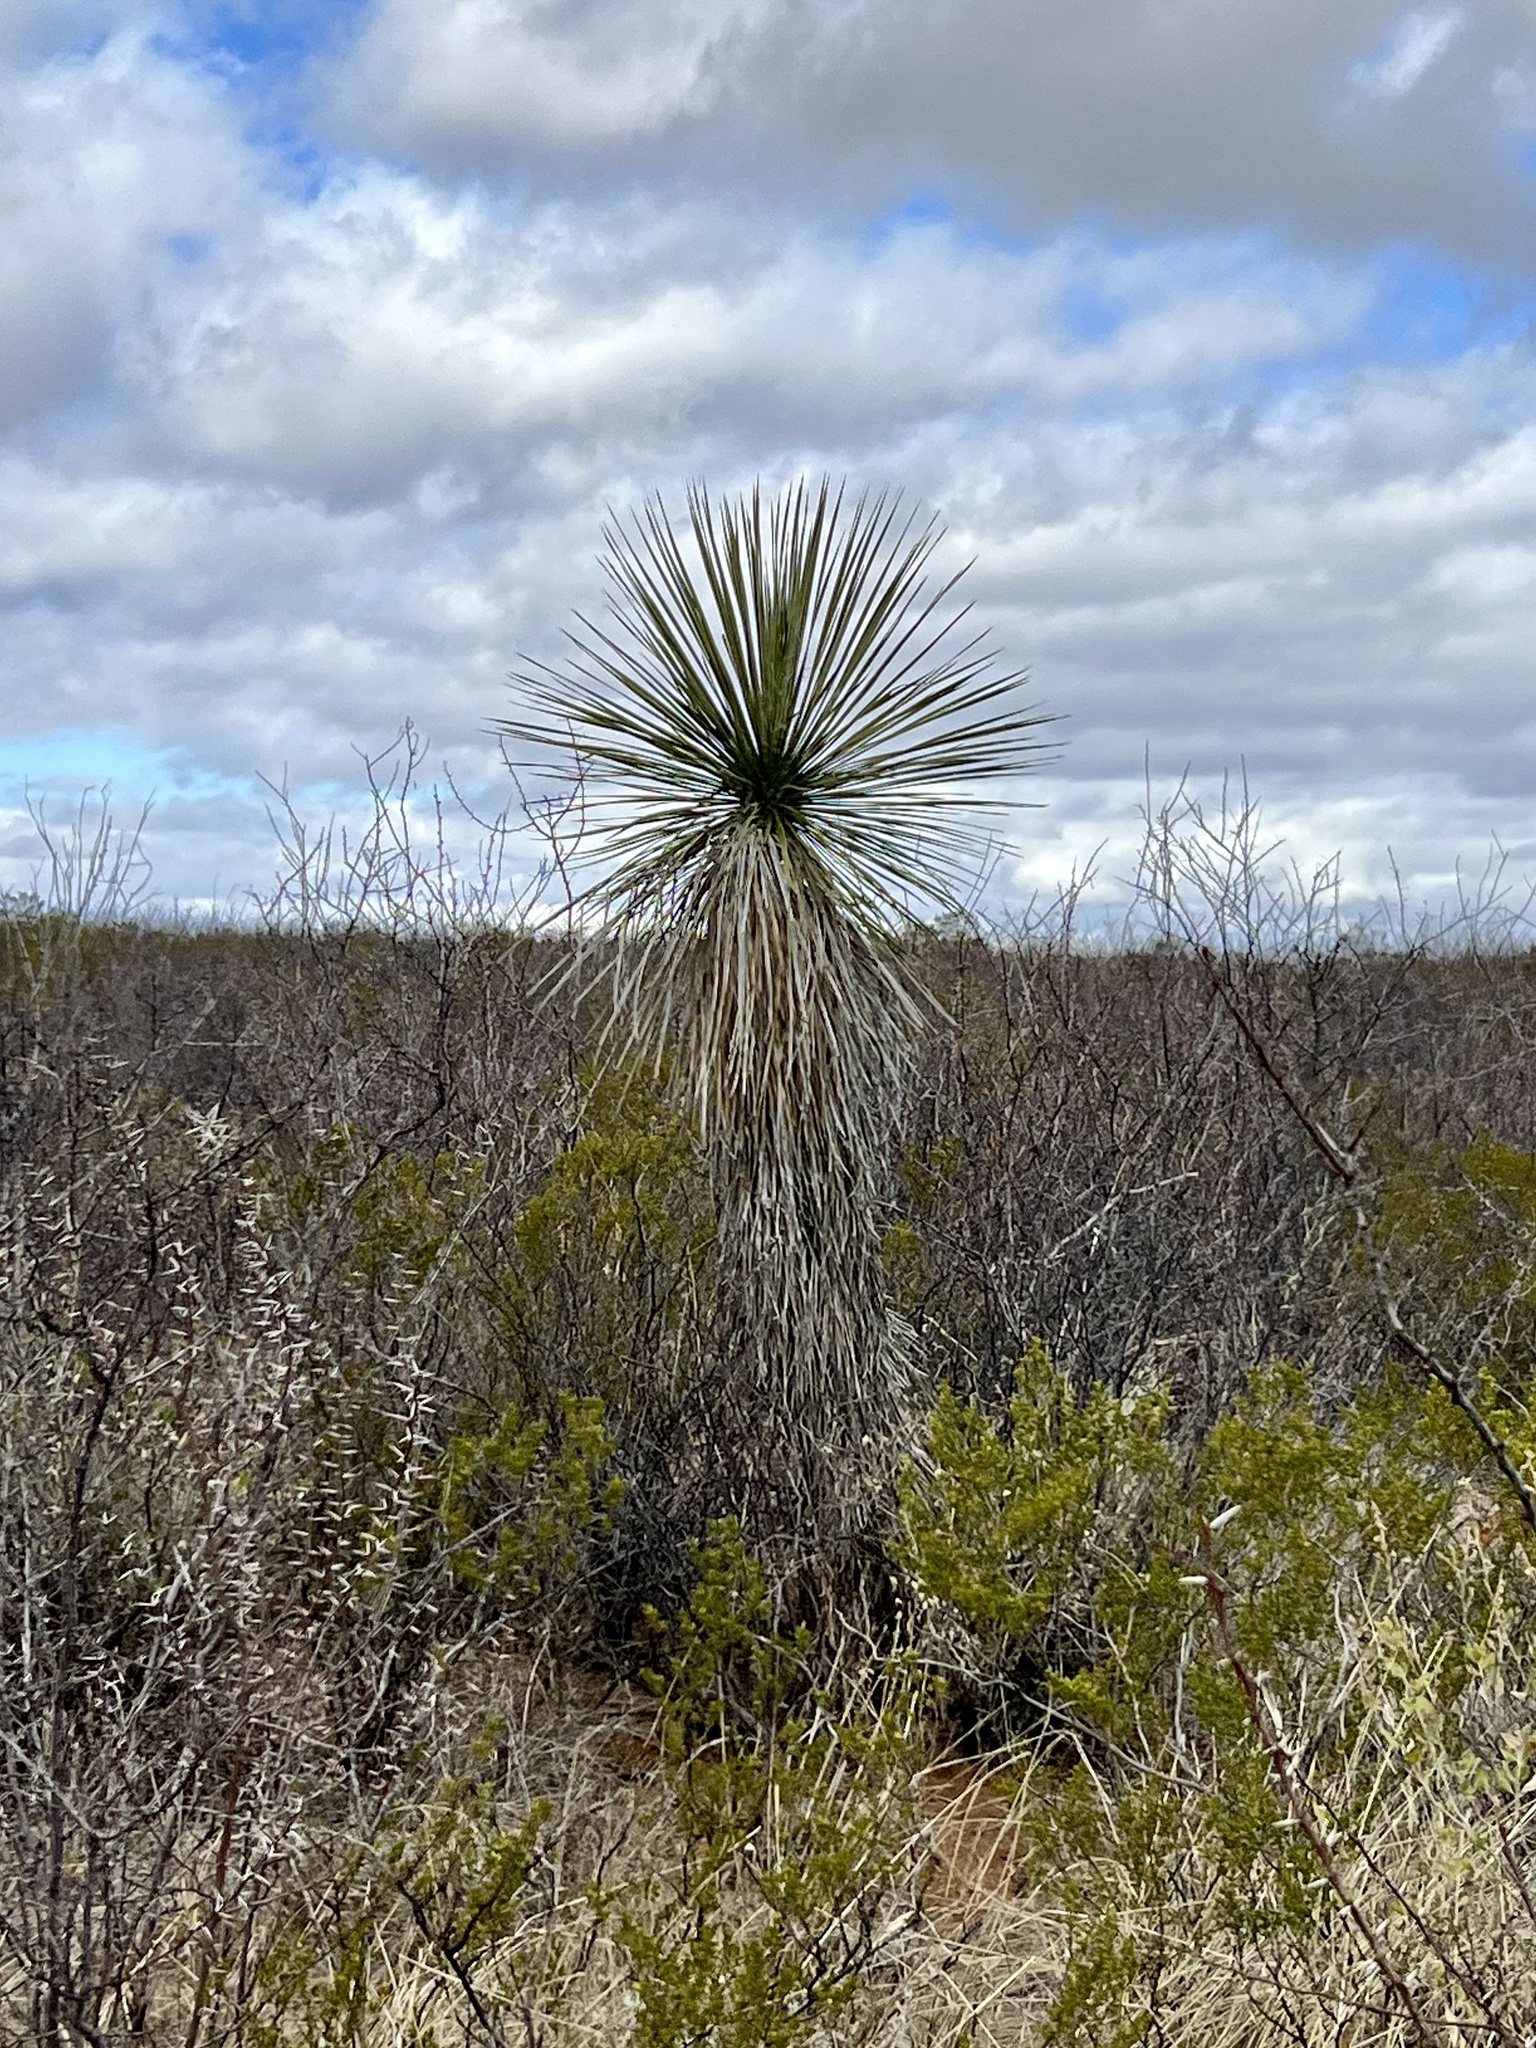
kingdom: Plantae
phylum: Tracheophyta
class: Liliopsida
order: Asparagales
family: Asparagaceae
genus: Yucca
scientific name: Yucca elata
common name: Palmella
